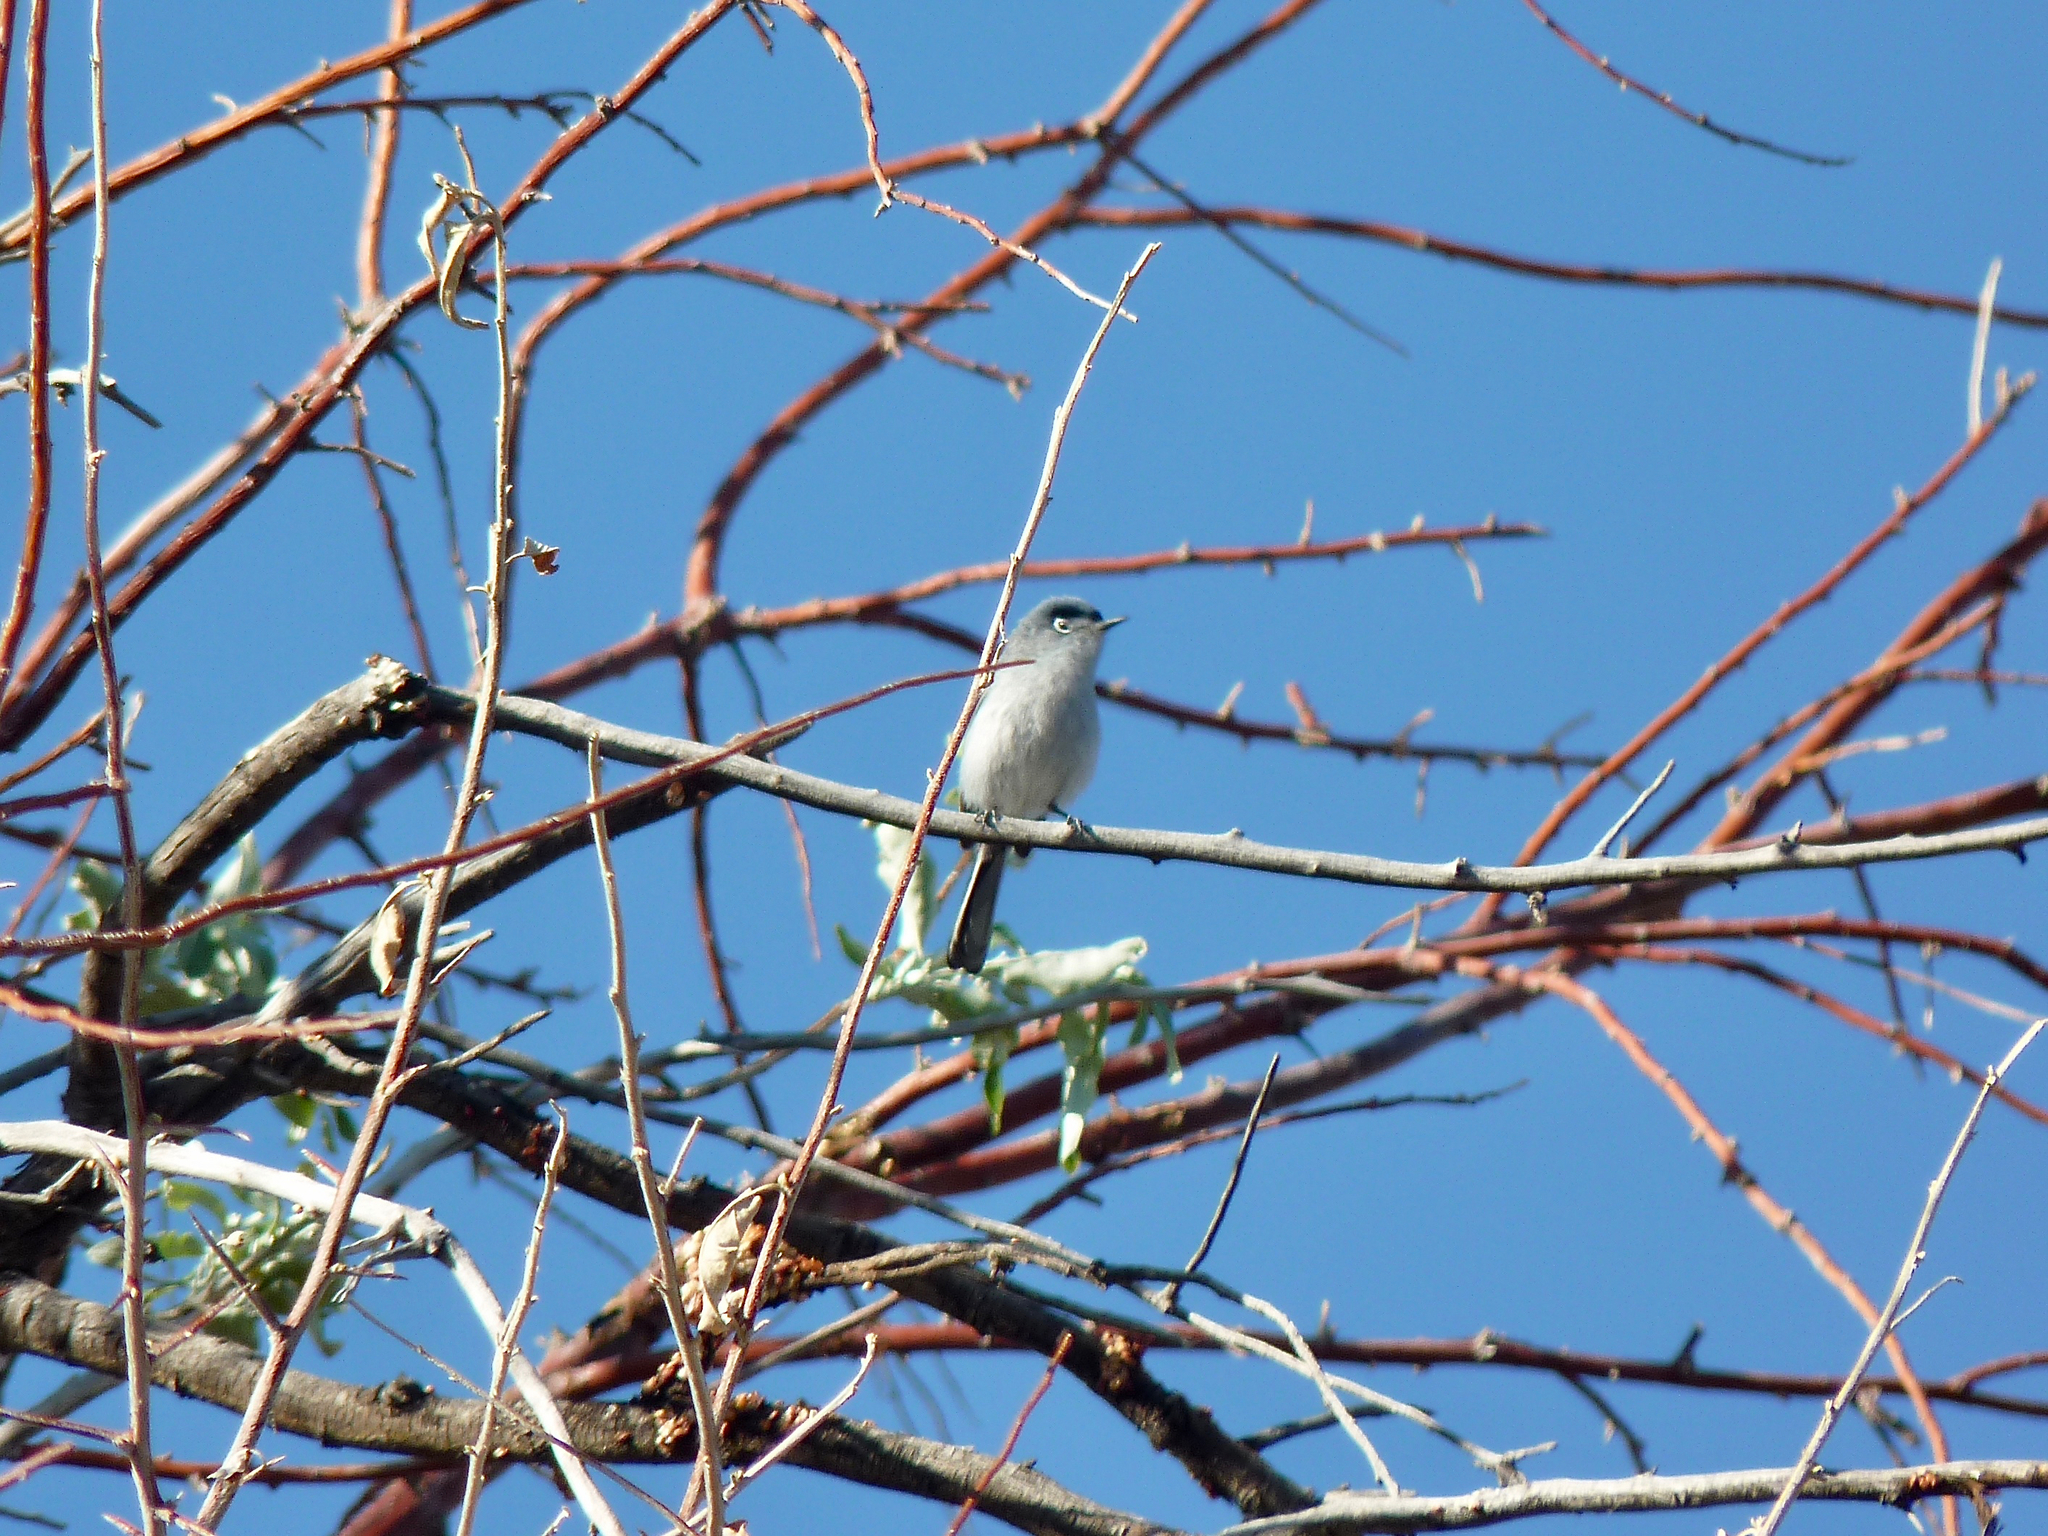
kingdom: Animalia
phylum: Chordata
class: Aves
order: Passeriformes
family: Polioptilidae
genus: Polioptila
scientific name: Polioptila caerulea
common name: Blue-gray gnatcatcher
